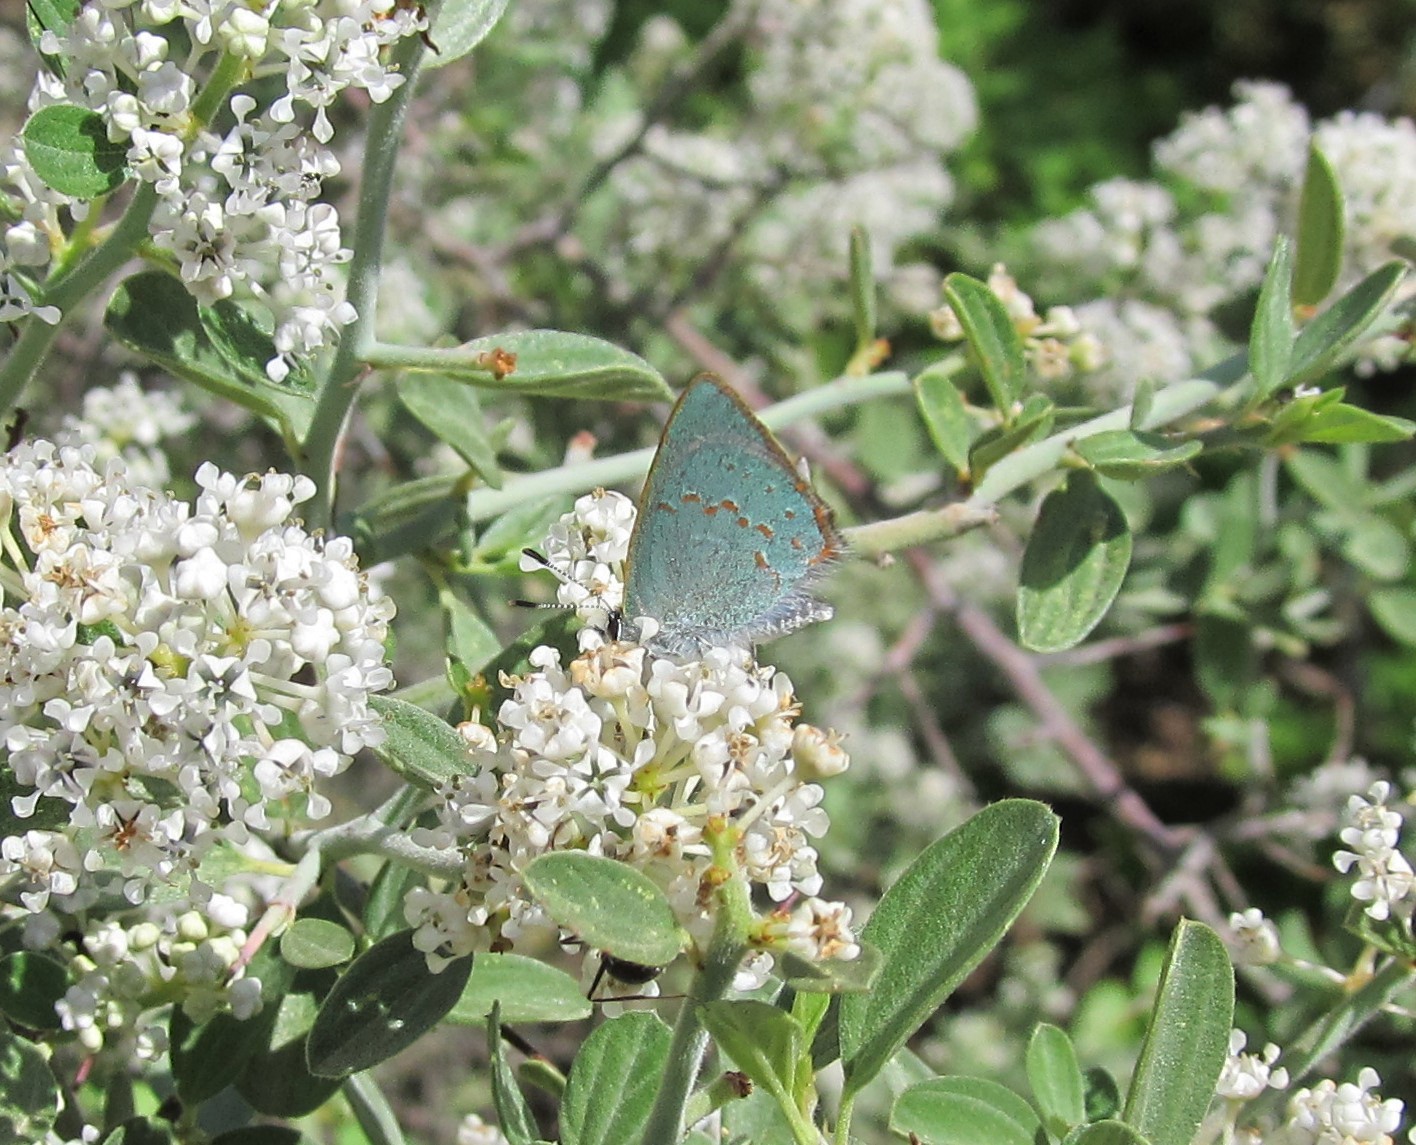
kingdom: Animalia
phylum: Arthropoda
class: Insecta
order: Lepidoptera
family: Lycaenidae
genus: Erora
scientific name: Erora quaderna
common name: Arizona hairstreak
